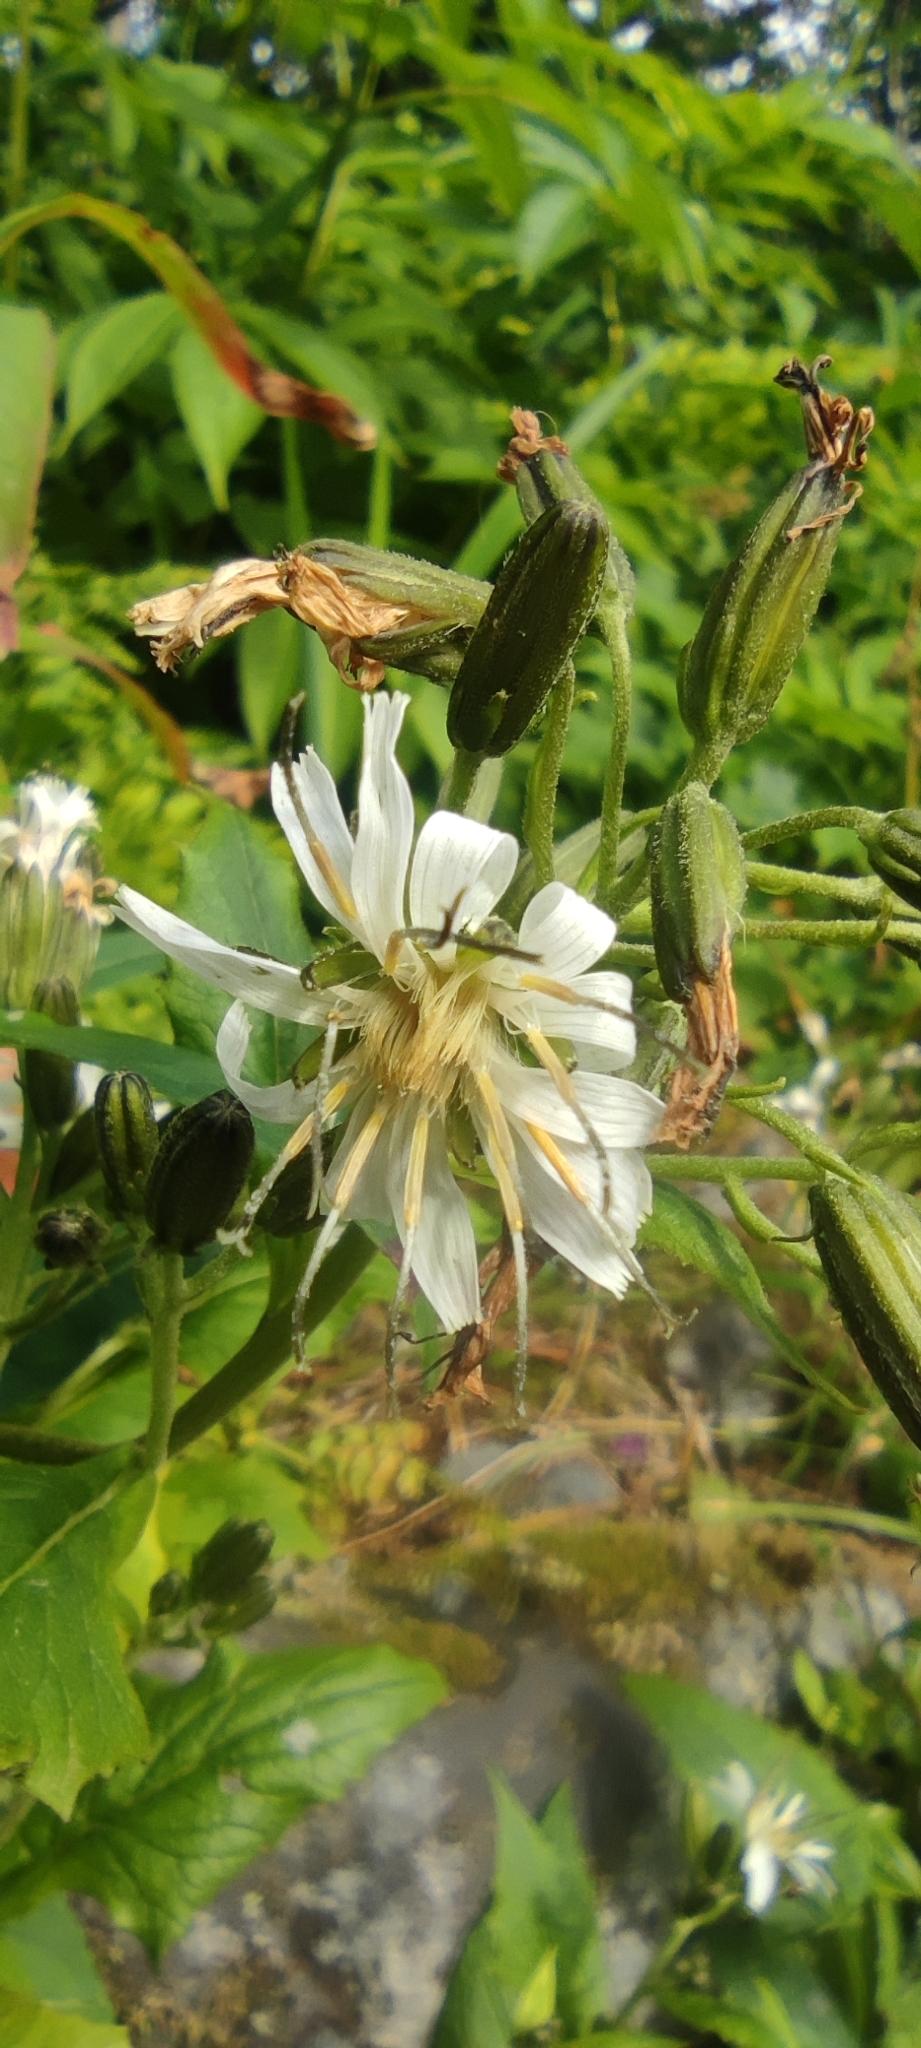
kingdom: Plantae
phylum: Tracheophyta
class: Magnoliopsida
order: Asterales
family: Asteraceae
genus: Nabalus
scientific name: Nabalus hastatus
